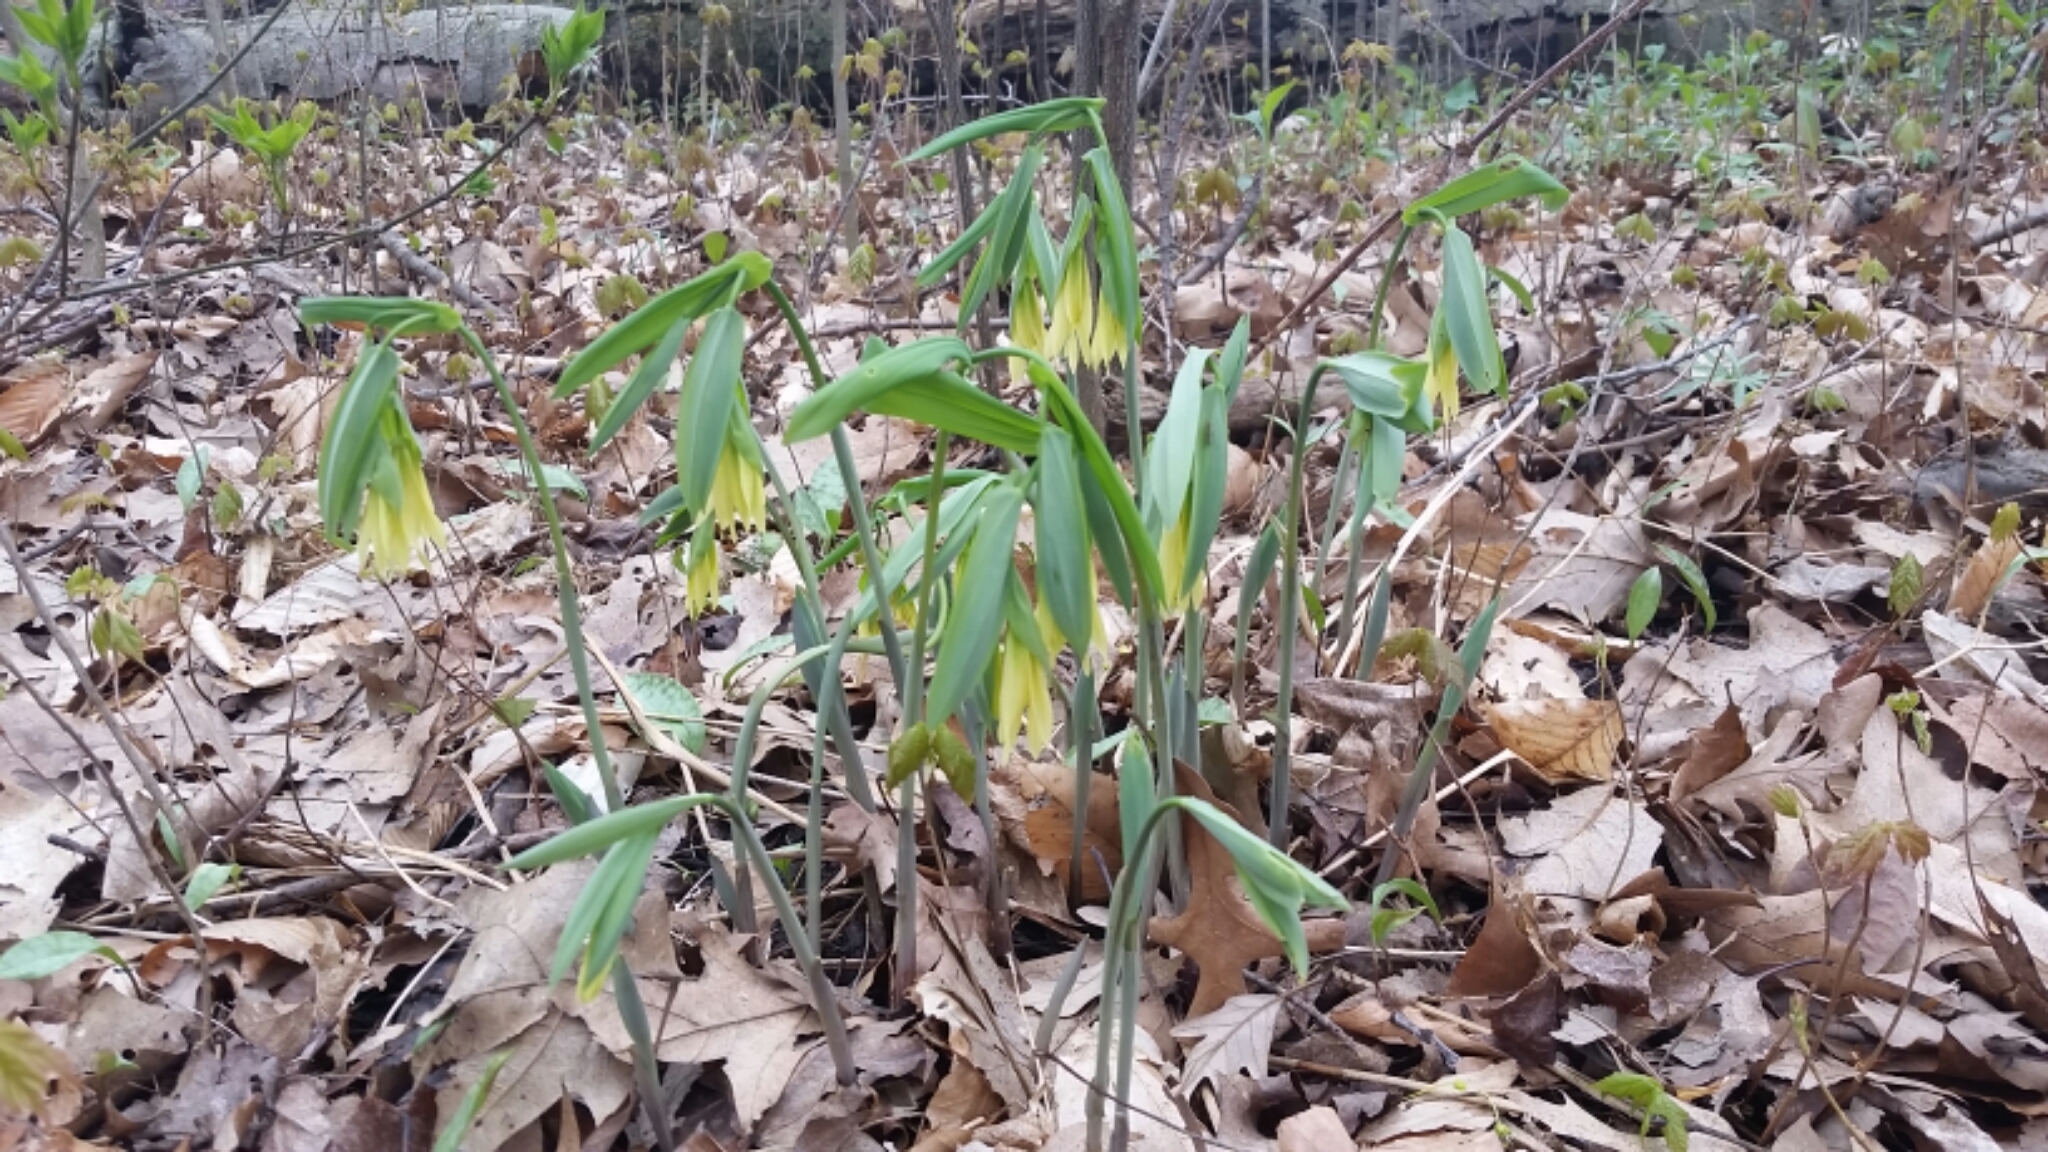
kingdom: Plantae
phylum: Tracheophyta
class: Liliopsida
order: Liliales
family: Colchicaceae
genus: Uvularia
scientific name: Uvularia grandiflora
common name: Bellwort
